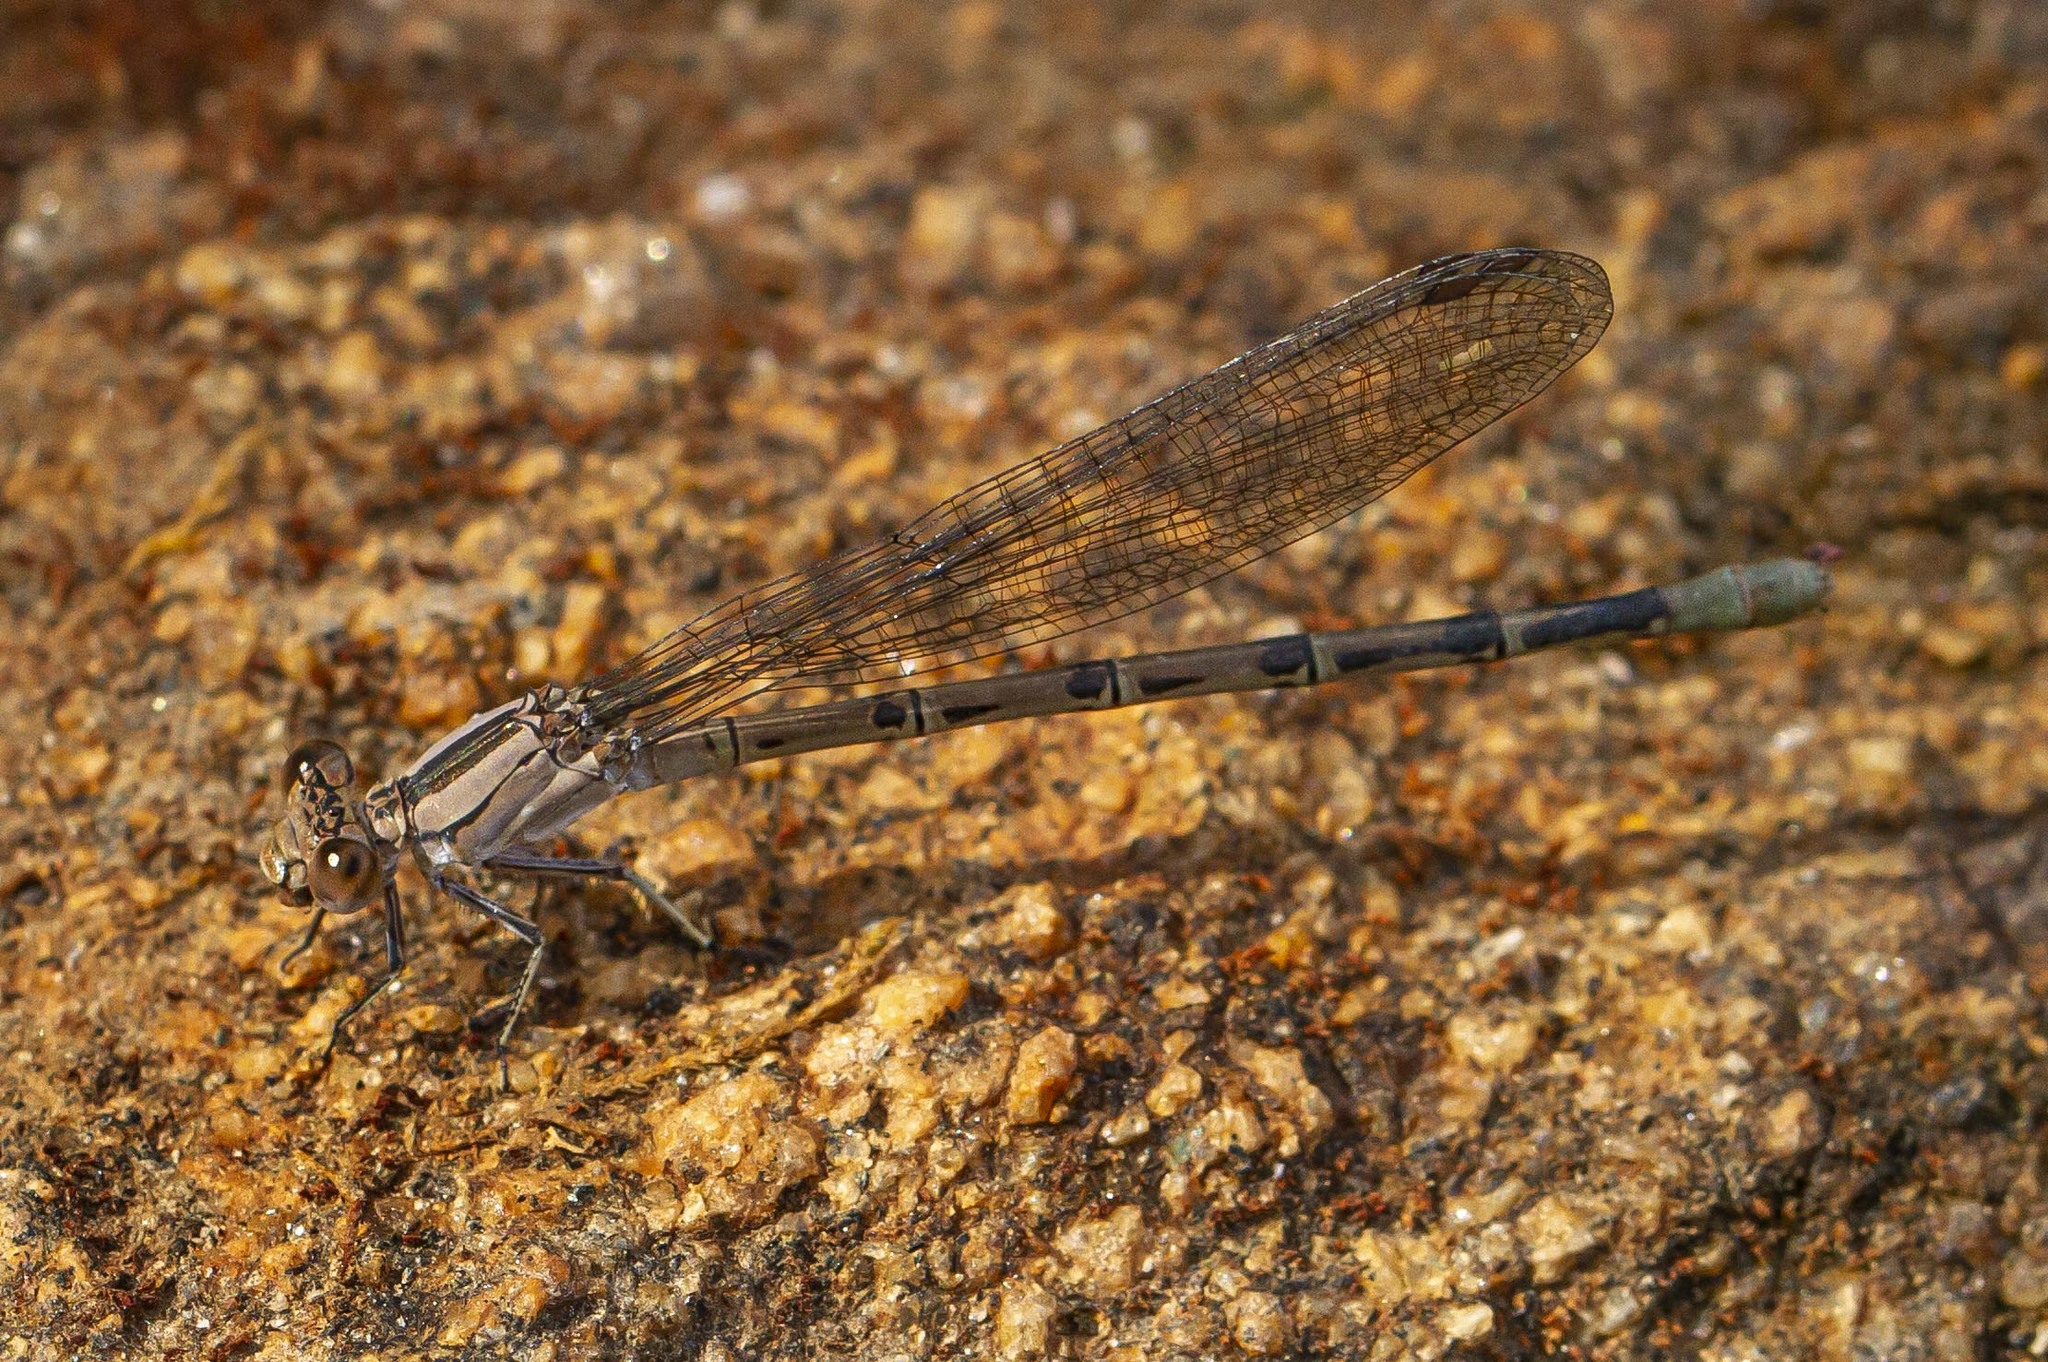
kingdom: Animalia
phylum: Arthropoda
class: Insecta
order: Odonata
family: Coenagrionidae
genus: Argia
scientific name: Argia vivida
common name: Vivid dancer
